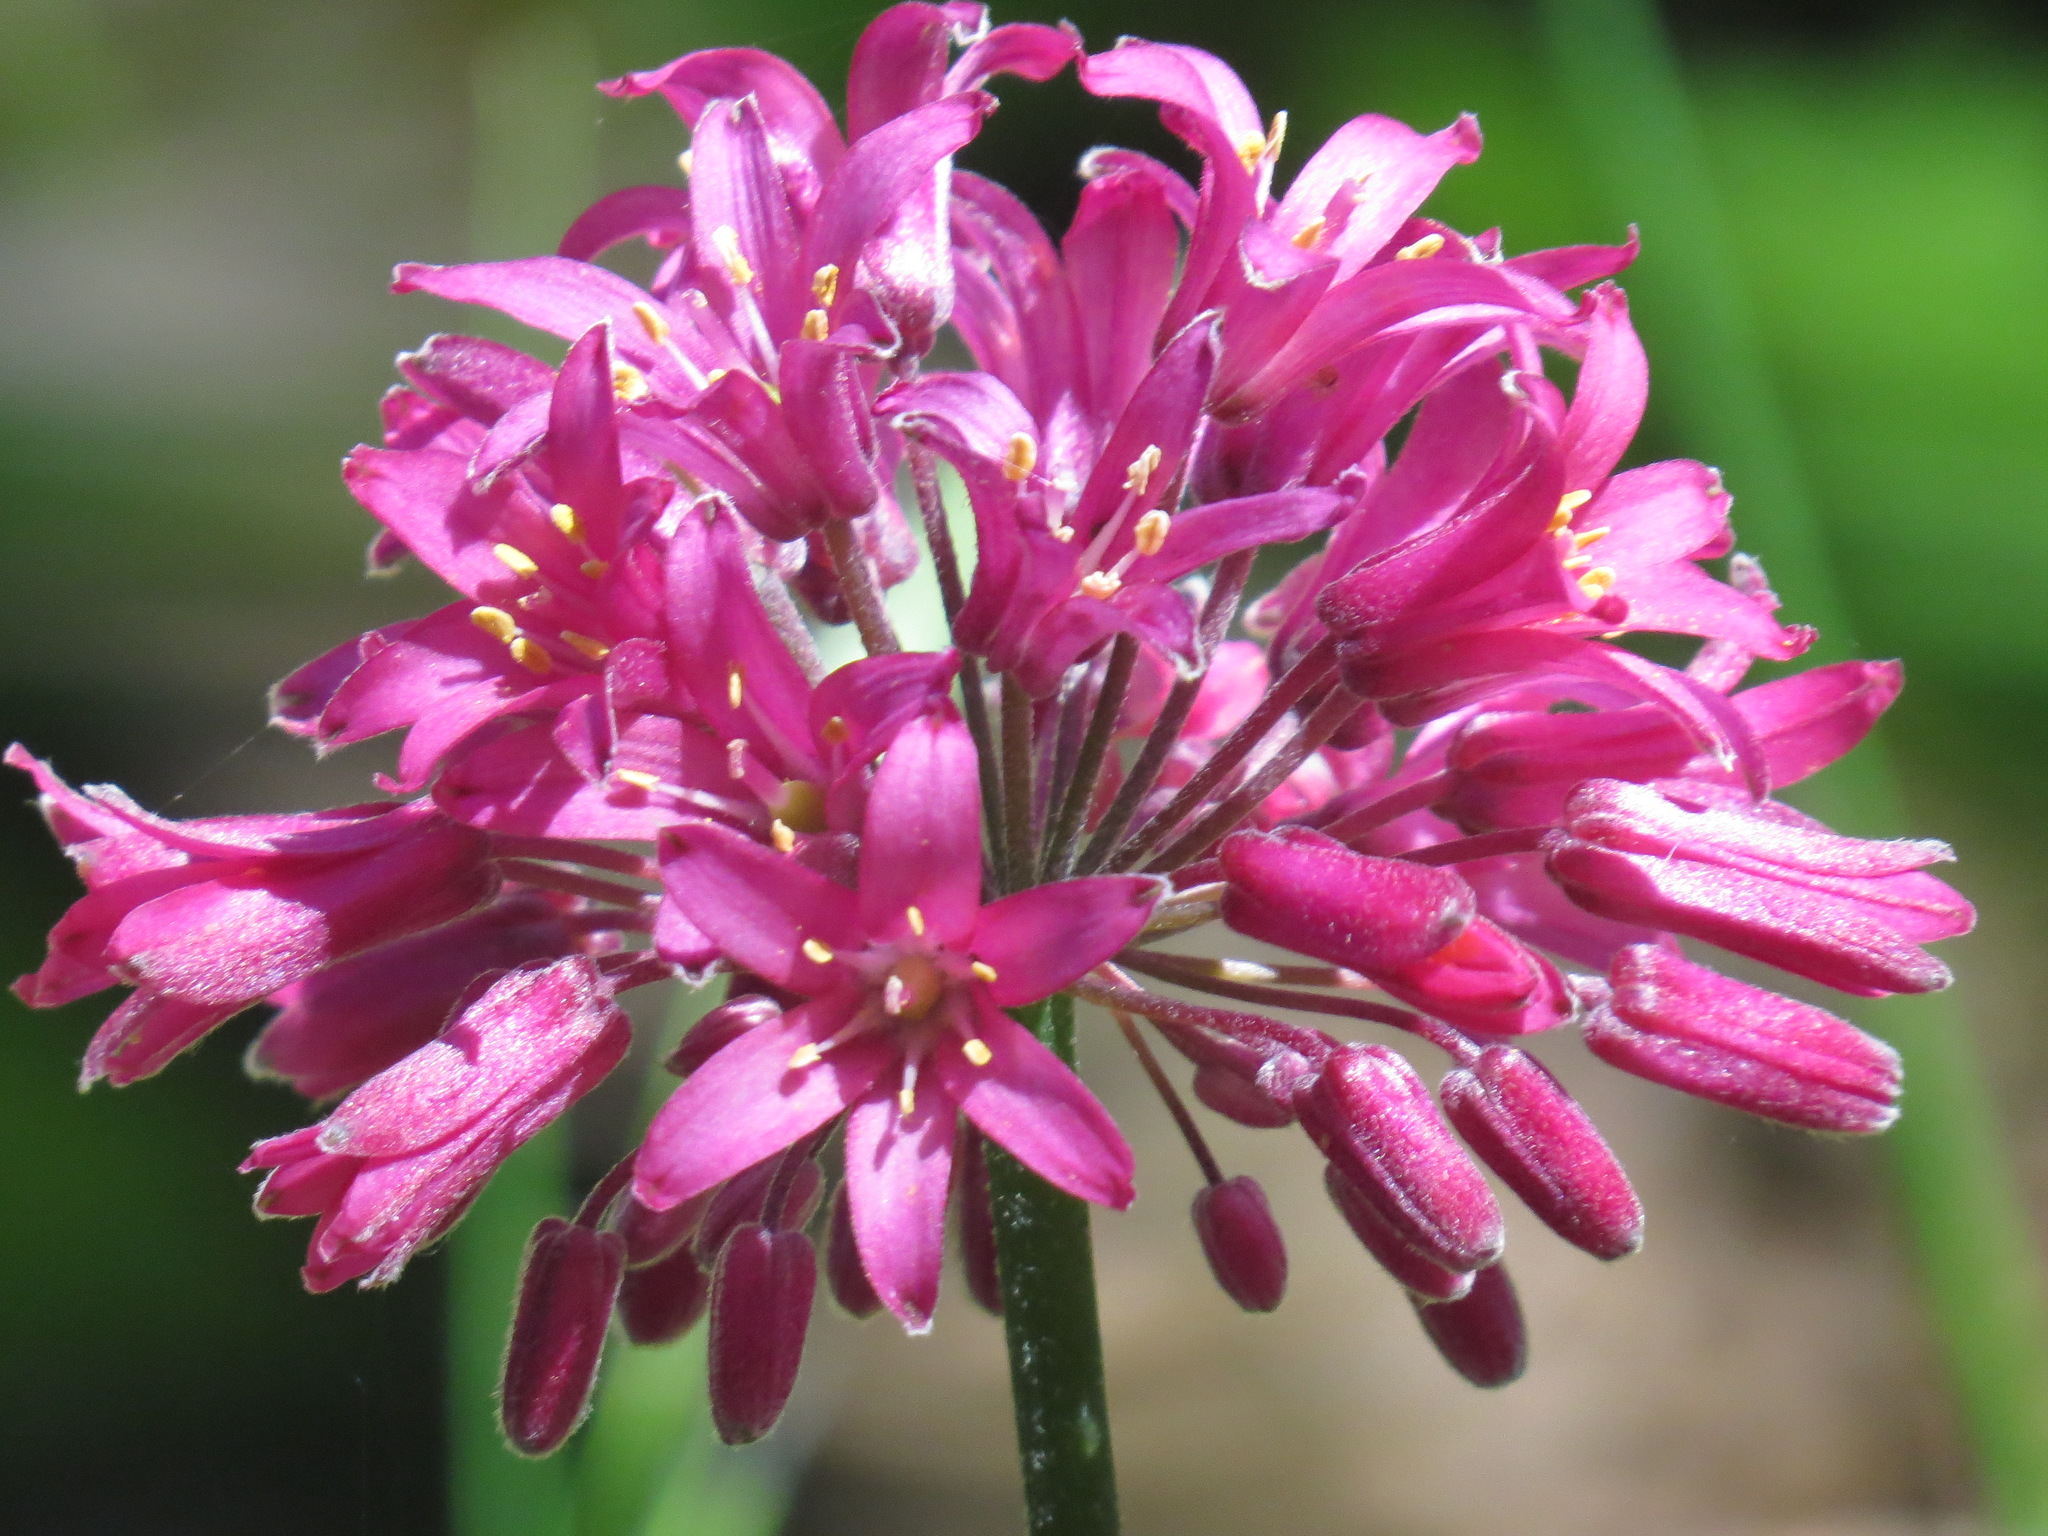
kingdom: Plantae
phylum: Tracheophyta
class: Liliopsida
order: Liliales
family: Liliaceae
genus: Clintonia
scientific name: Clintonia andrewsiana
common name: Red clintonia
